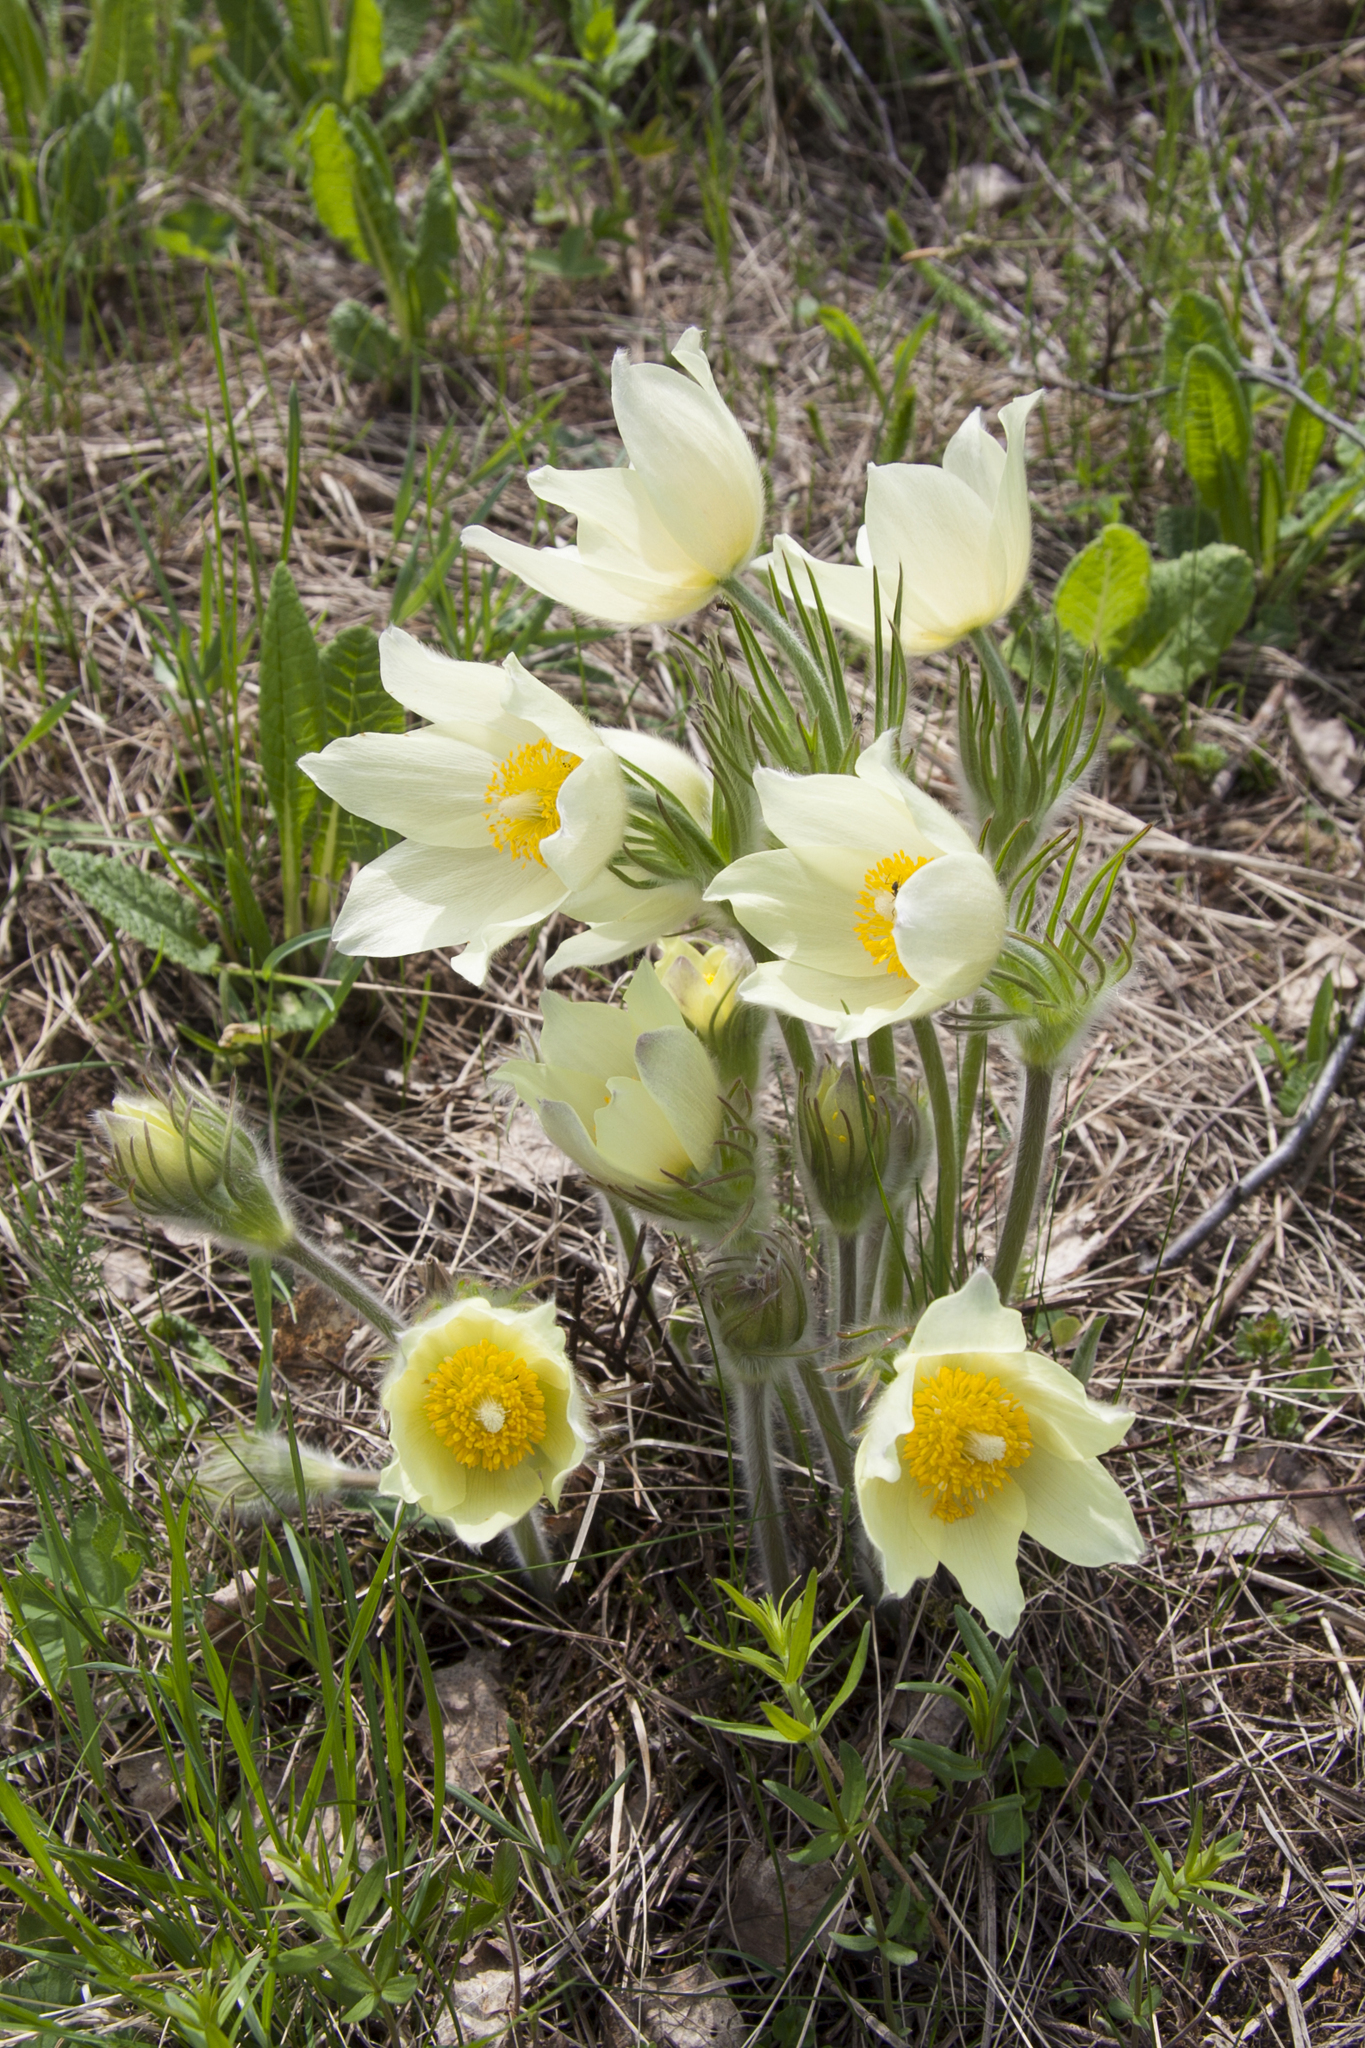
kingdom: Plantae
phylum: Tracheophyta
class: Magnoliopsida
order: Ranunculales
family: Ranunculaceae
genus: Pulsatilla
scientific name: Pulsatilla patens
